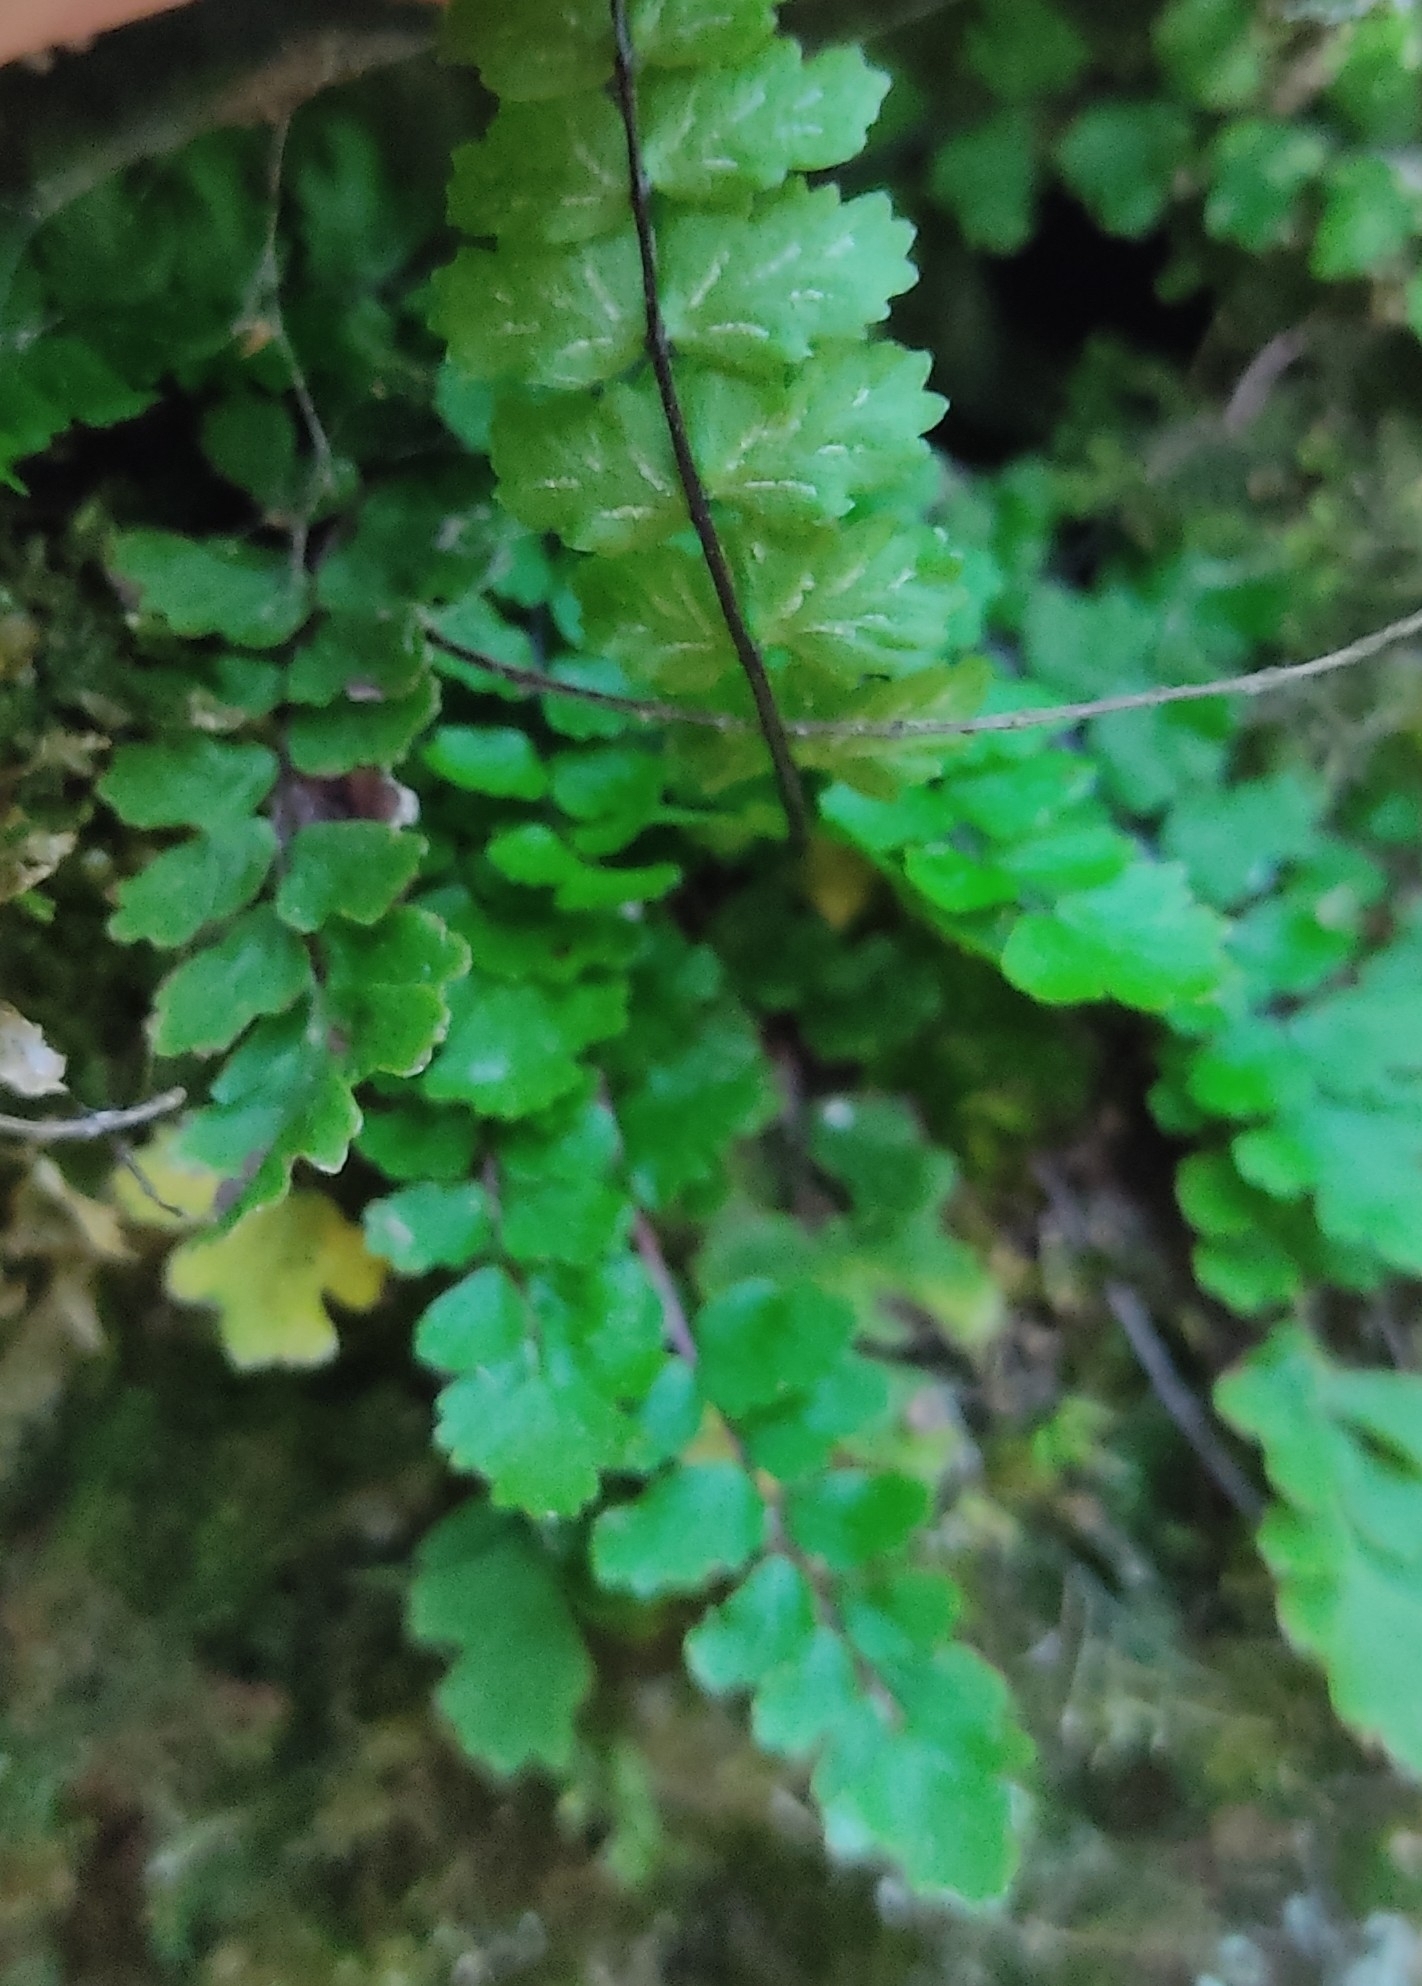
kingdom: Plantae
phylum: Tracheophyta
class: Polypodiopsida
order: Polypodiales
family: Aspleniaceae
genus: Asplenium
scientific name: Asplenium trichomanes
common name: Maidenhair spleenwort
